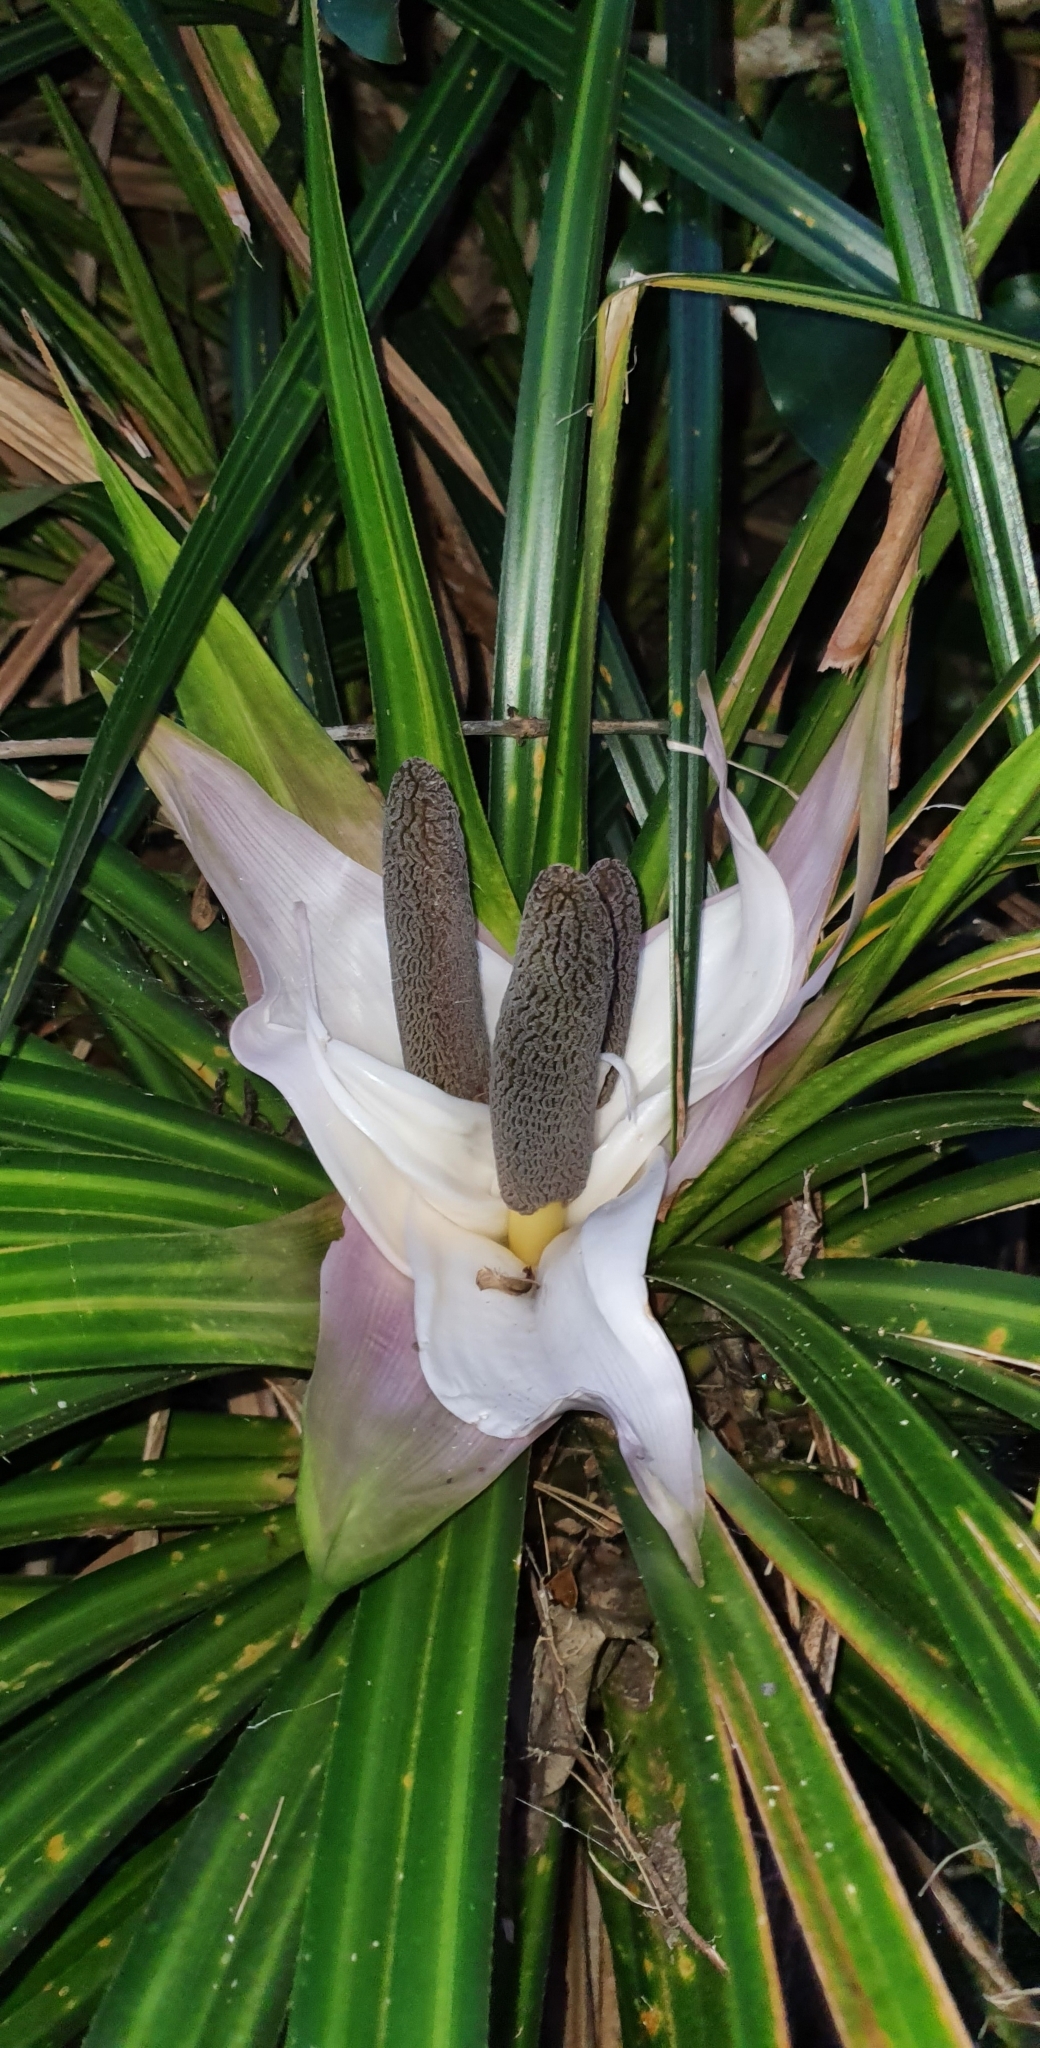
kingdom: Plantae
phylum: Tracheophyta
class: Liliopsida
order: Pandanales
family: Pandanaceae
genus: Freycinetia
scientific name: Freycinetia banksii
